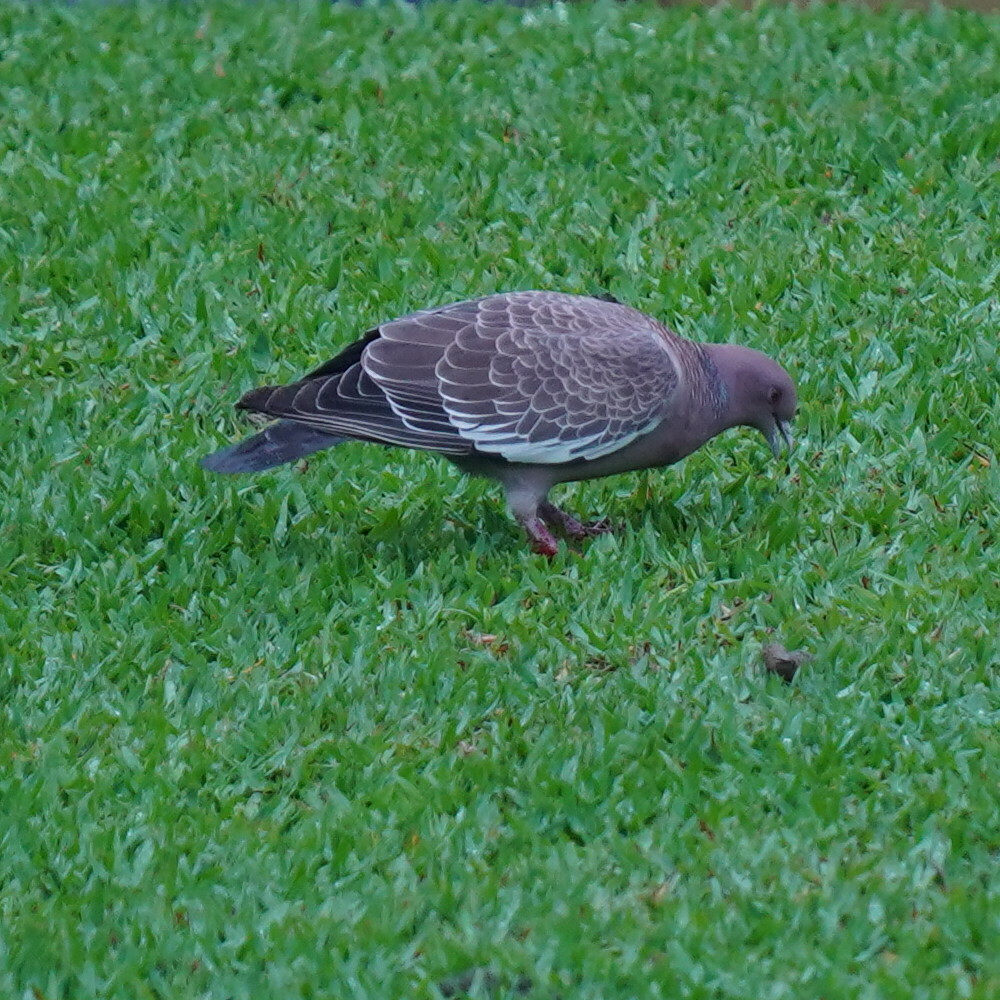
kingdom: Animalia
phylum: Chordata
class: Aves
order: Columbiformes
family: Columbidae
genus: Patagioenas
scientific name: Patagioenas picazuro
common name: Picazuro pigeon
